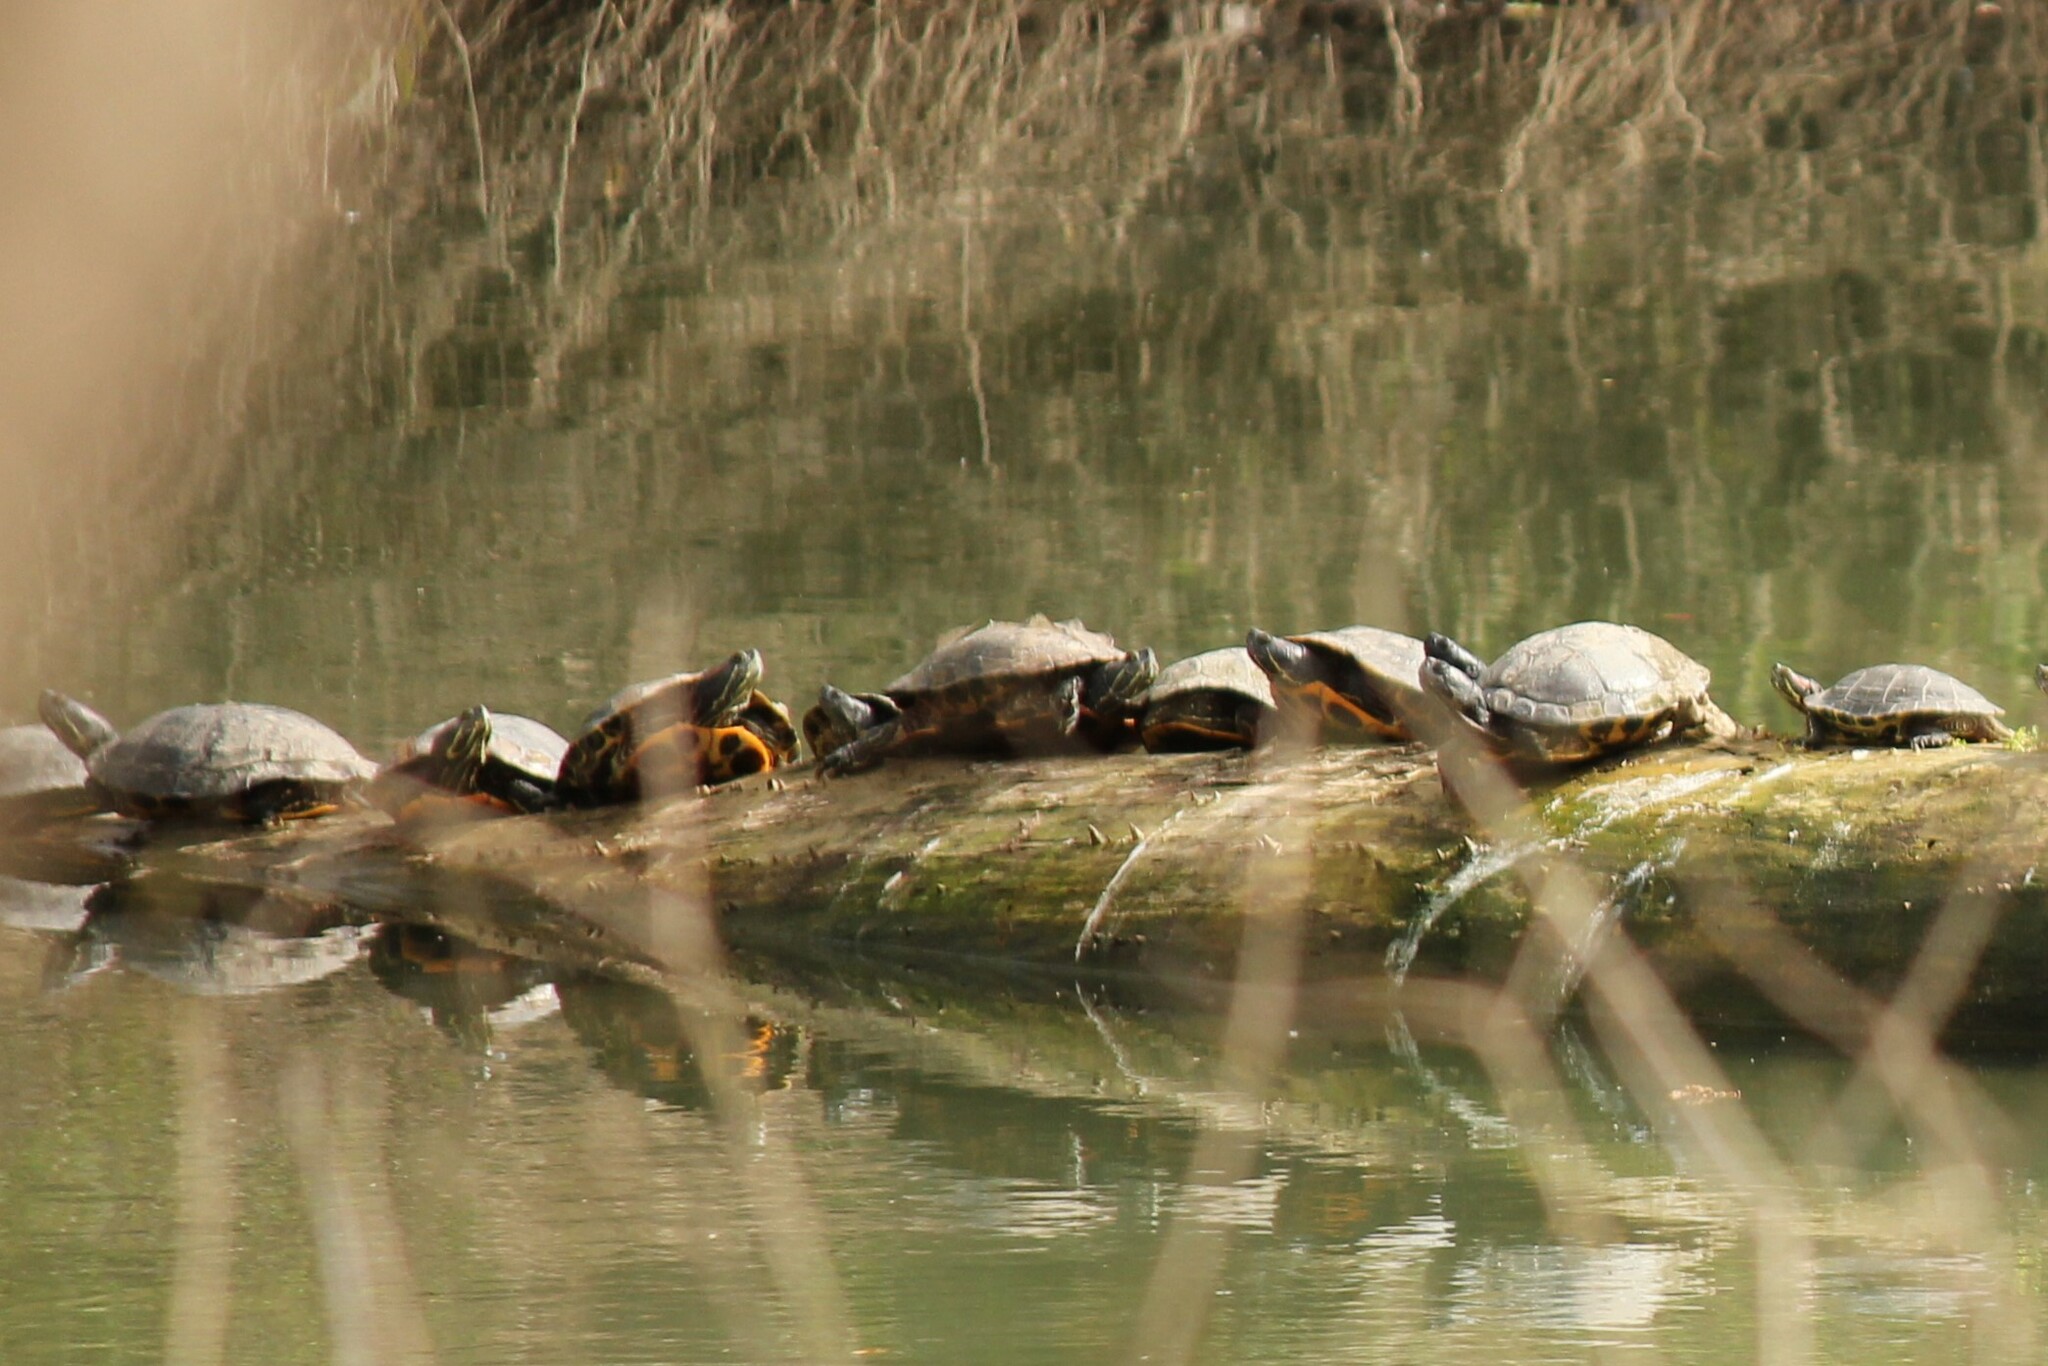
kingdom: Animalia
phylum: Chordata
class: Testudines
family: Emydidae
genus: Trachemys
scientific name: Trachemys scripta
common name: Slider
